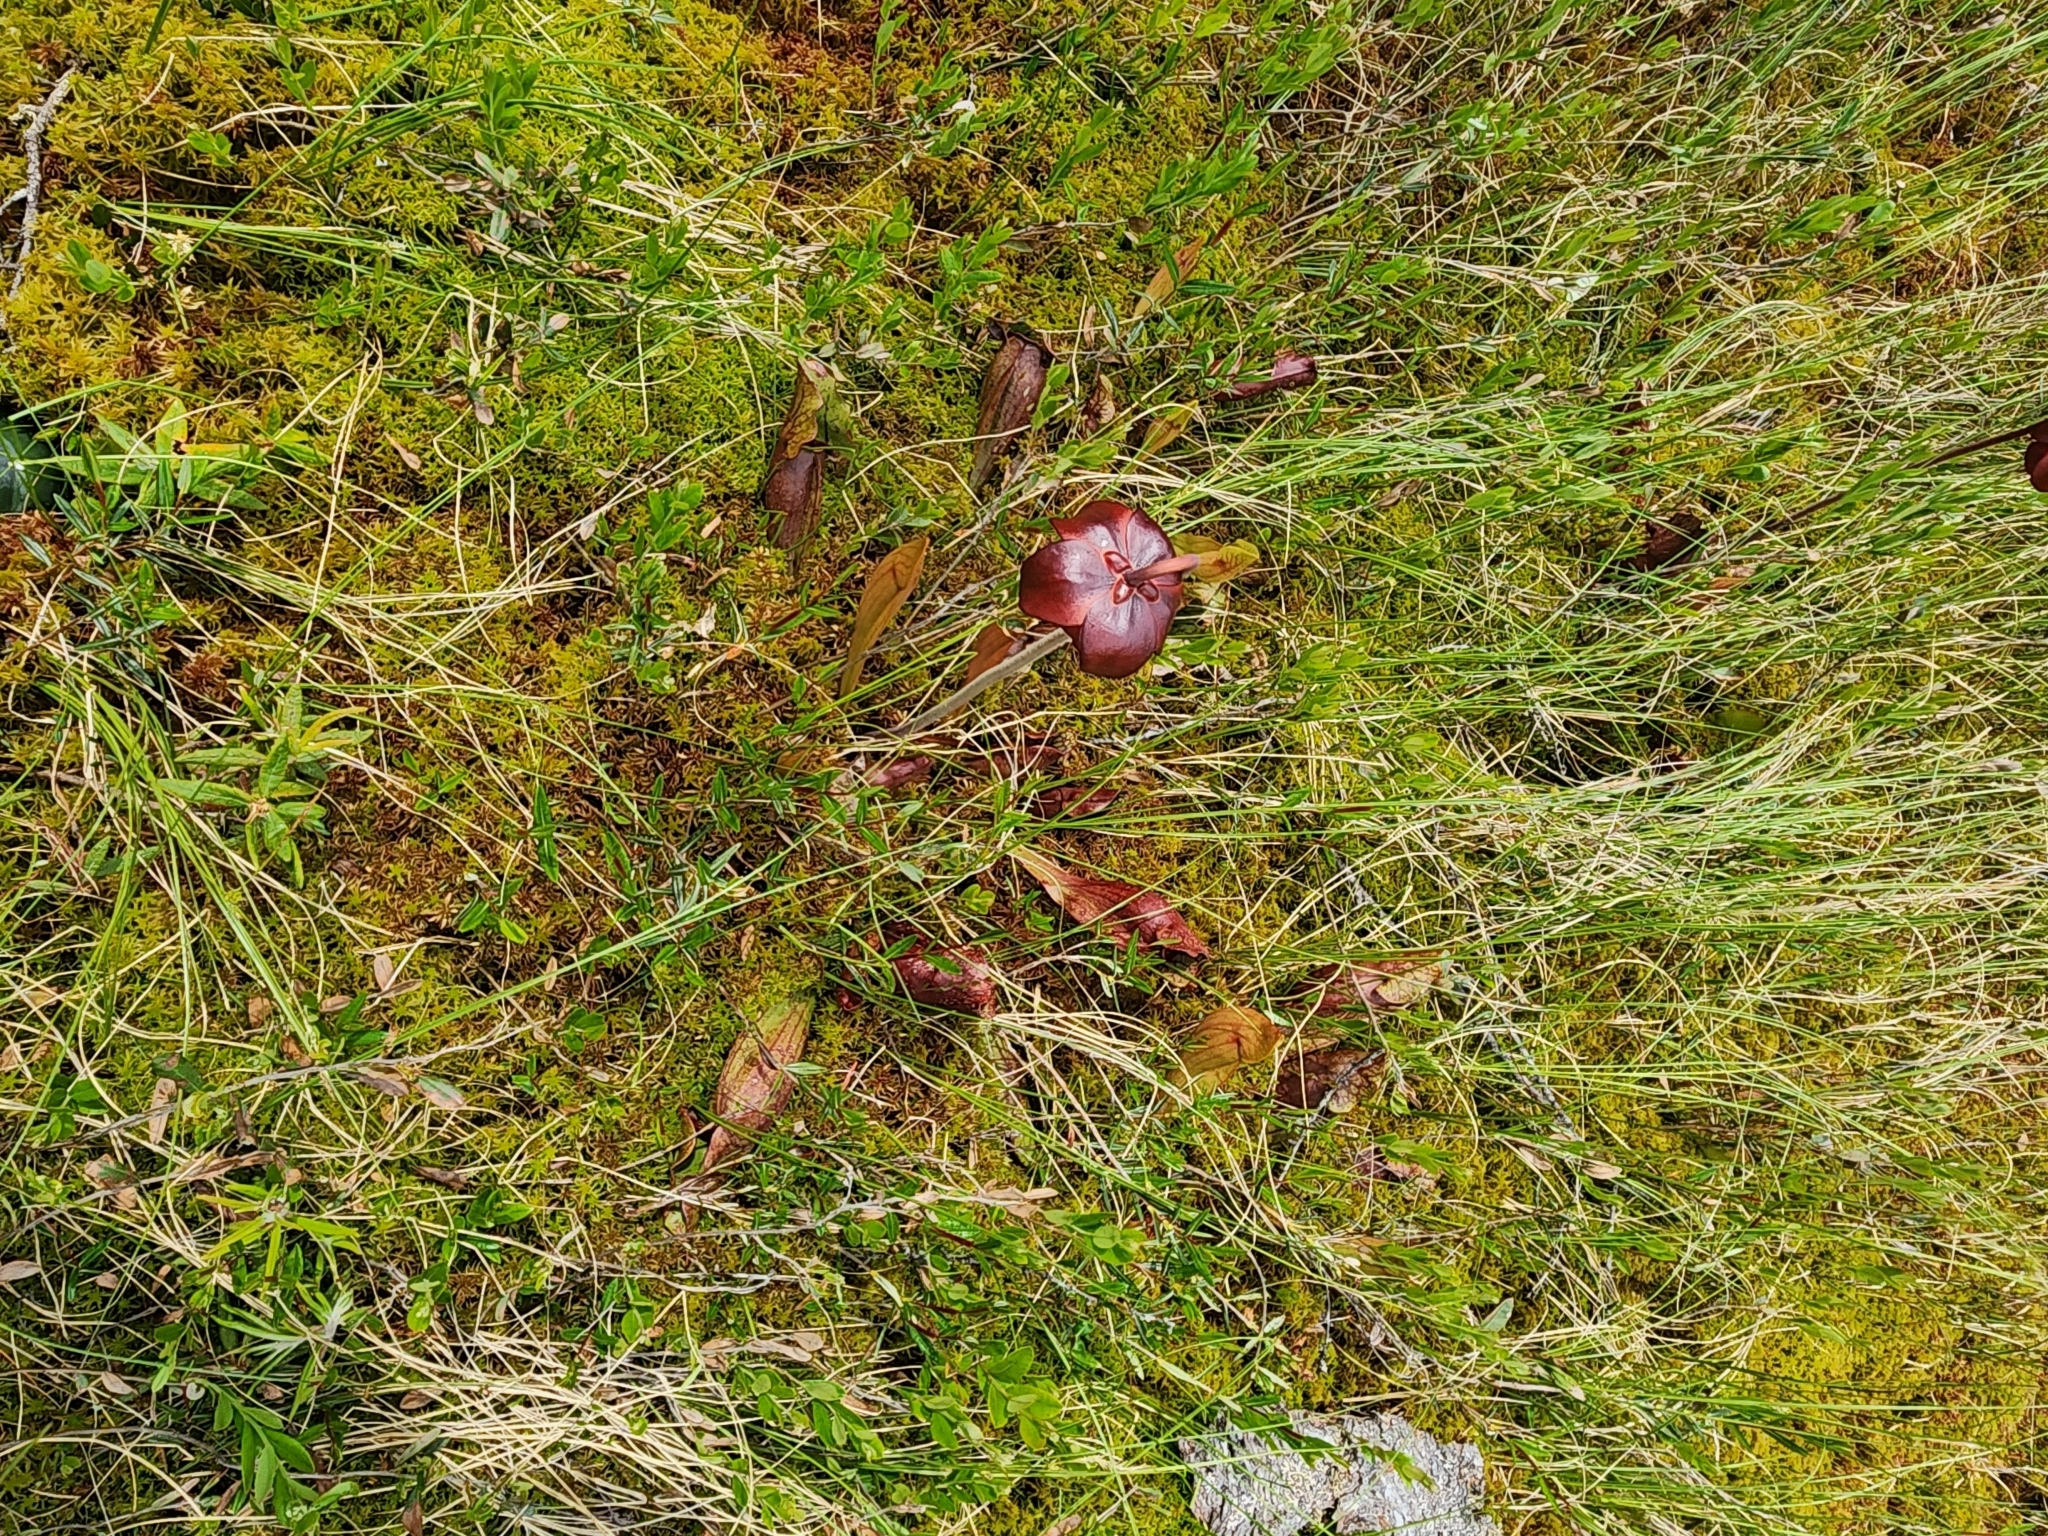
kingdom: Plantae
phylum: Tracheophyta
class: Magnoliopsida
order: Ericales
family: Sarraceniaceae
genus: Sarracenia
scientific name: Sarracenia purpurea
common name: Pitcherplant
